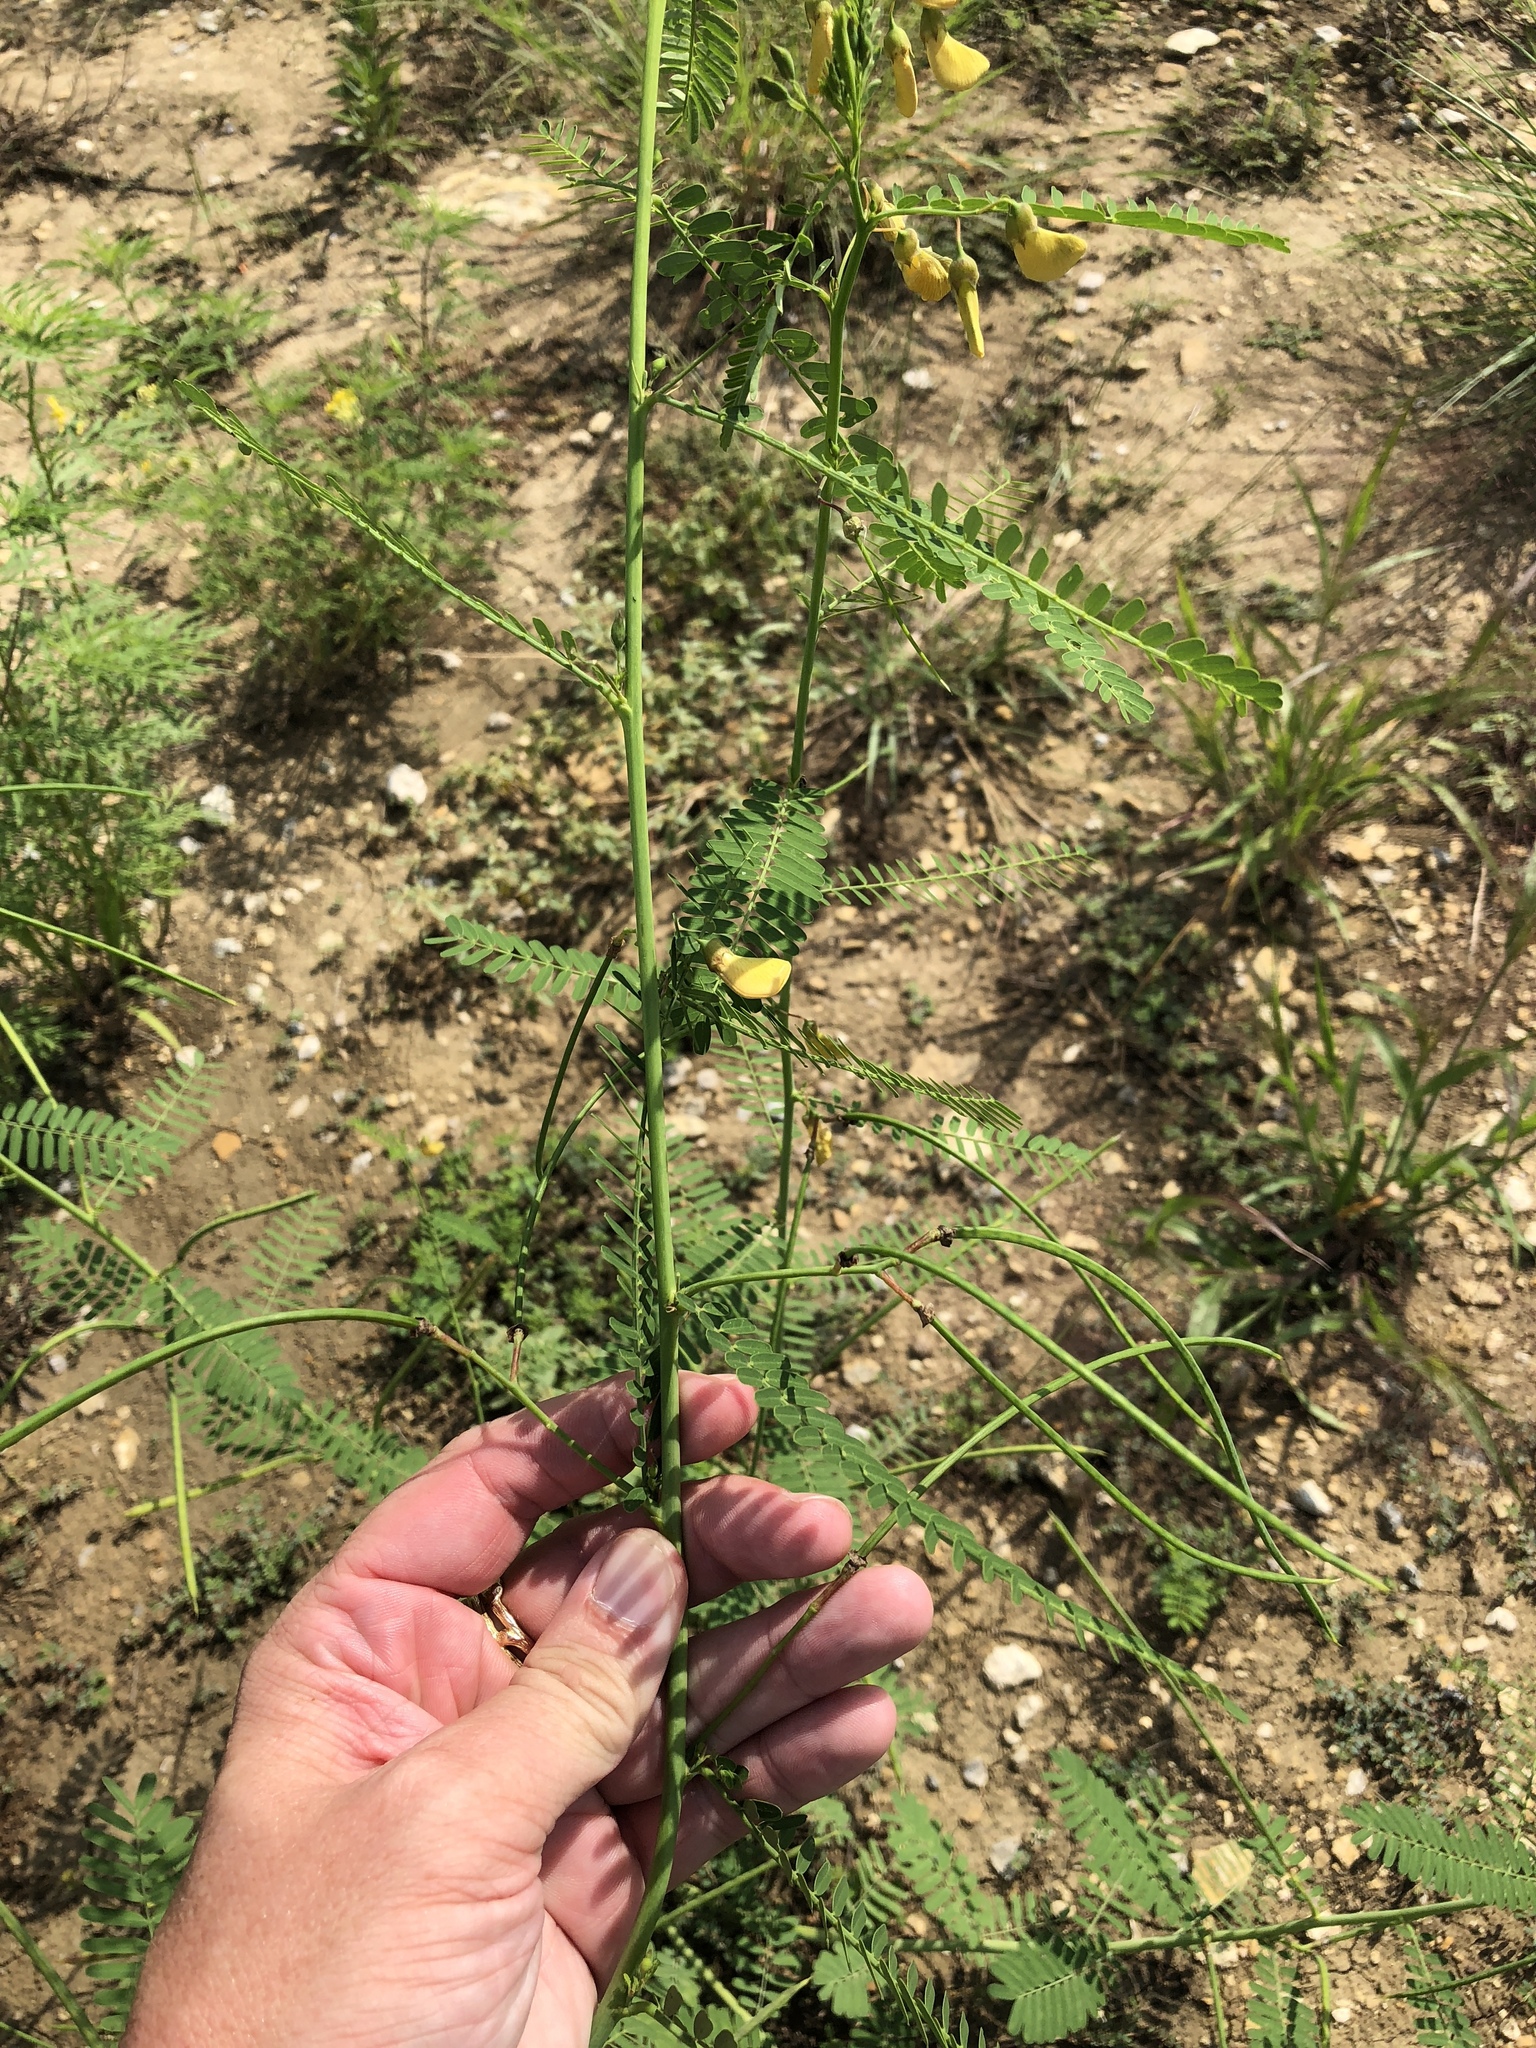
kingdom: Plantae
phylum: Tracheophyta
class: Magnoliopsida
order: Fabales
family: Fabaceae
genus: Sesbania
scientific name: Sesbania herbacea
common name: Bigpod sesbania
